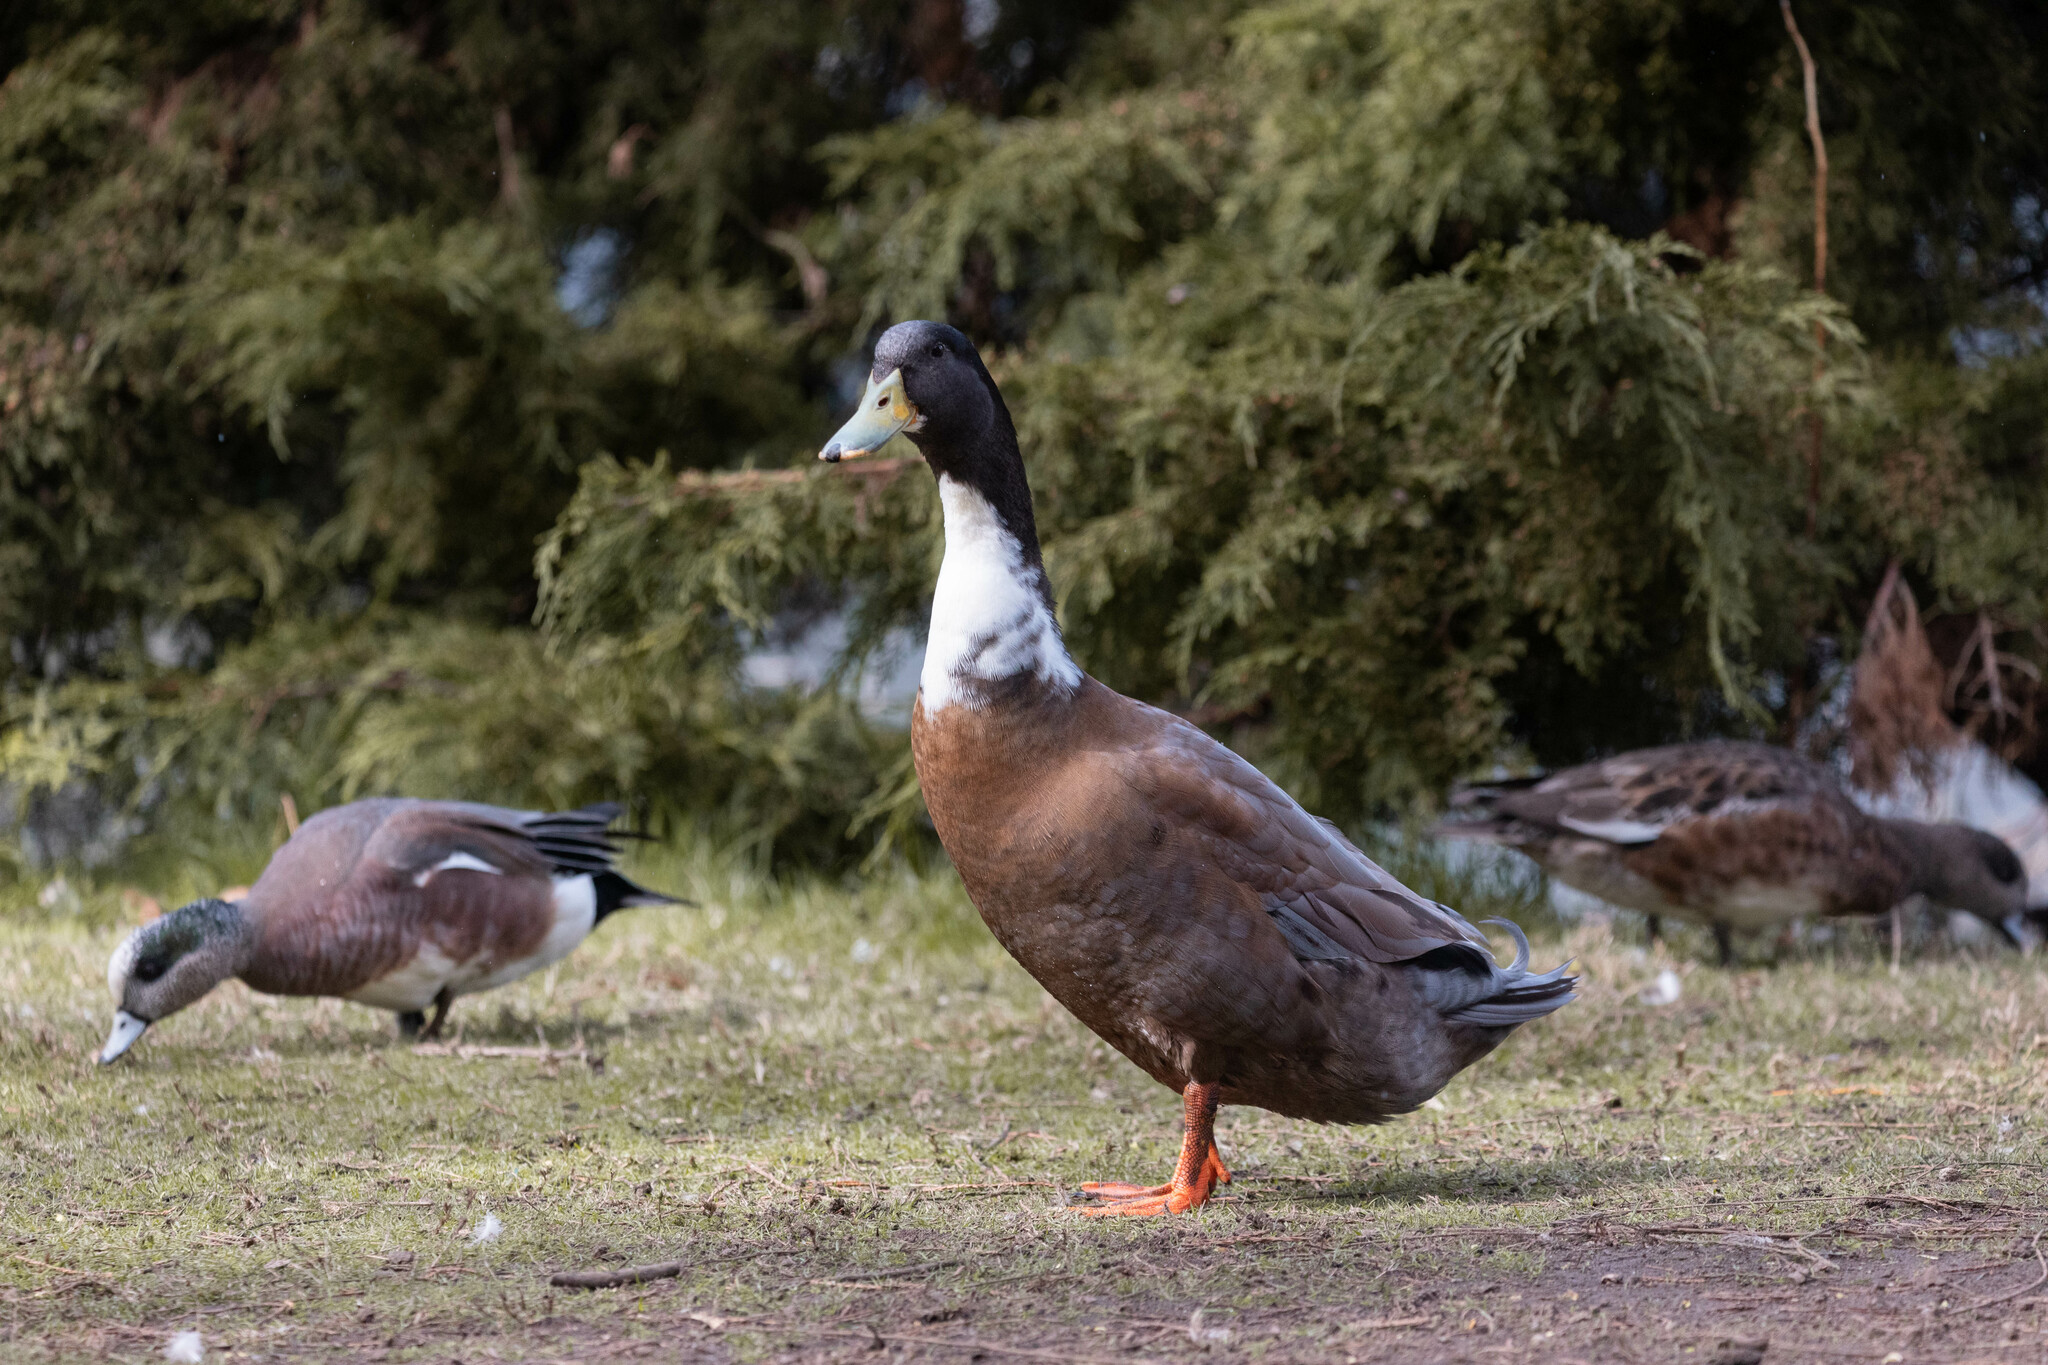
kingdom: Animalia
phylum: Chordata
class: Aves
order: Anseriformes
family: Anatidae
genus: Anas
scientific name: Anas platyrhynchos
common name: Mallard
